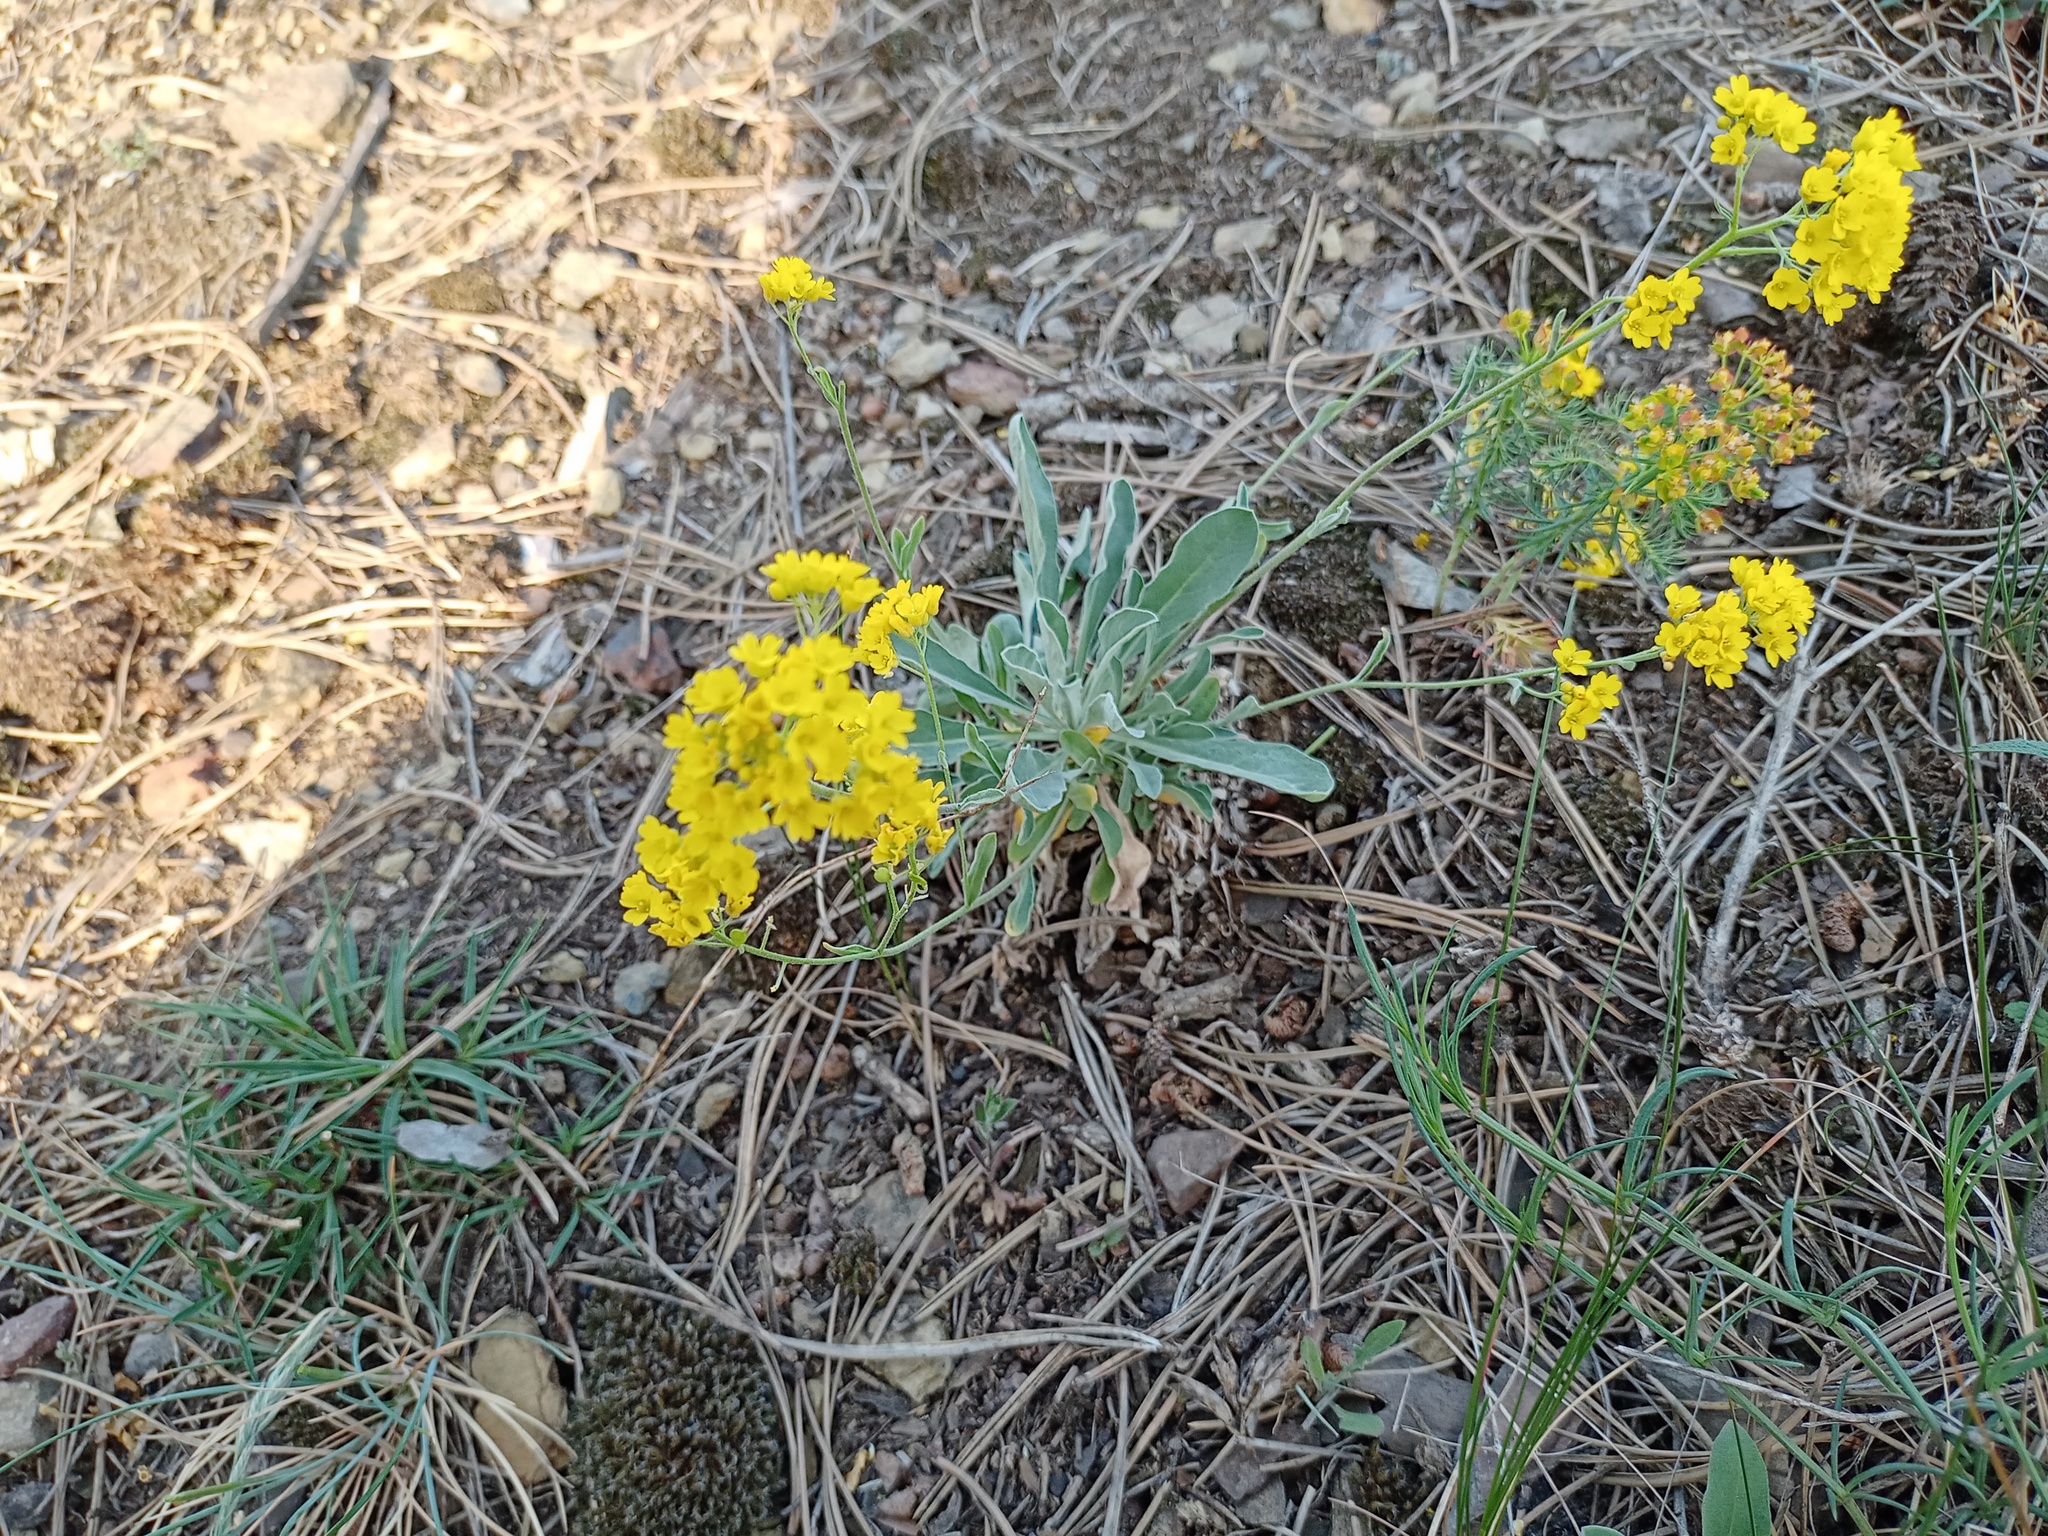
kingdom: Plantae
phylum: Tracheophyta
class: Magnoliopsida
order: Brassicales
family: Brassicaceae
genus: Aurinia
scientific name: Aurinia saxatilis
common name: Golden-tuft alyssum
